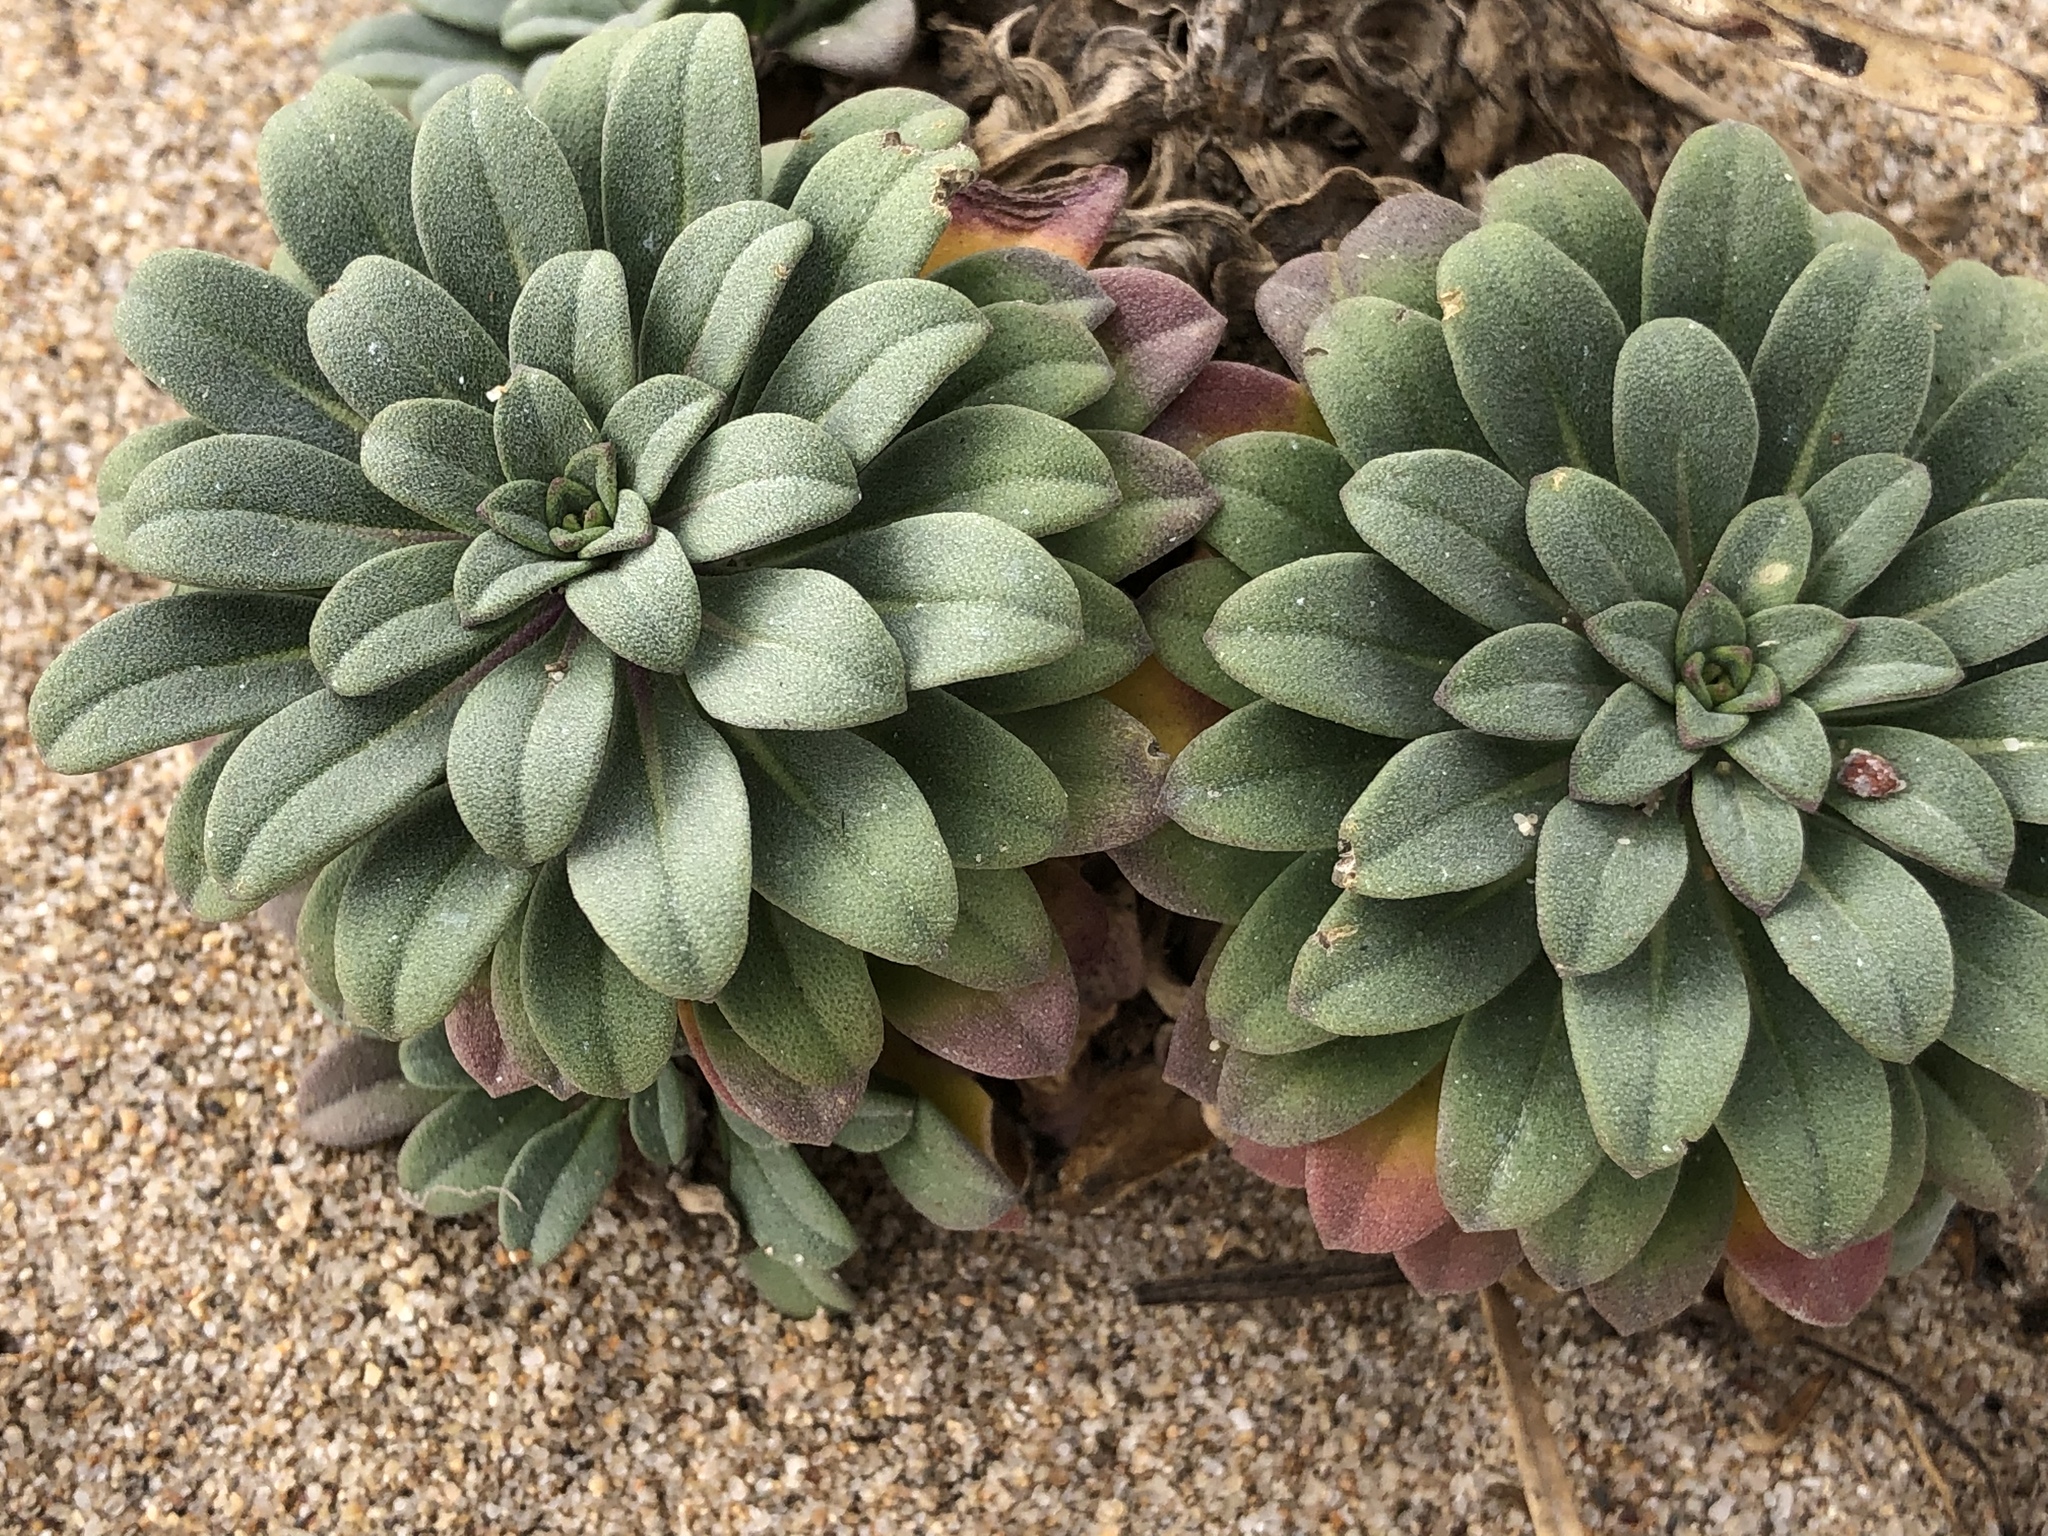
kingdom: Plantae
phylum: Tracheophyta
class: Magnoliopsida
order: Brassicales
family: Brassicaceae
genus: Erysimum
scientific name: Erysimum menziesii
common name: Menzies's wallflower
